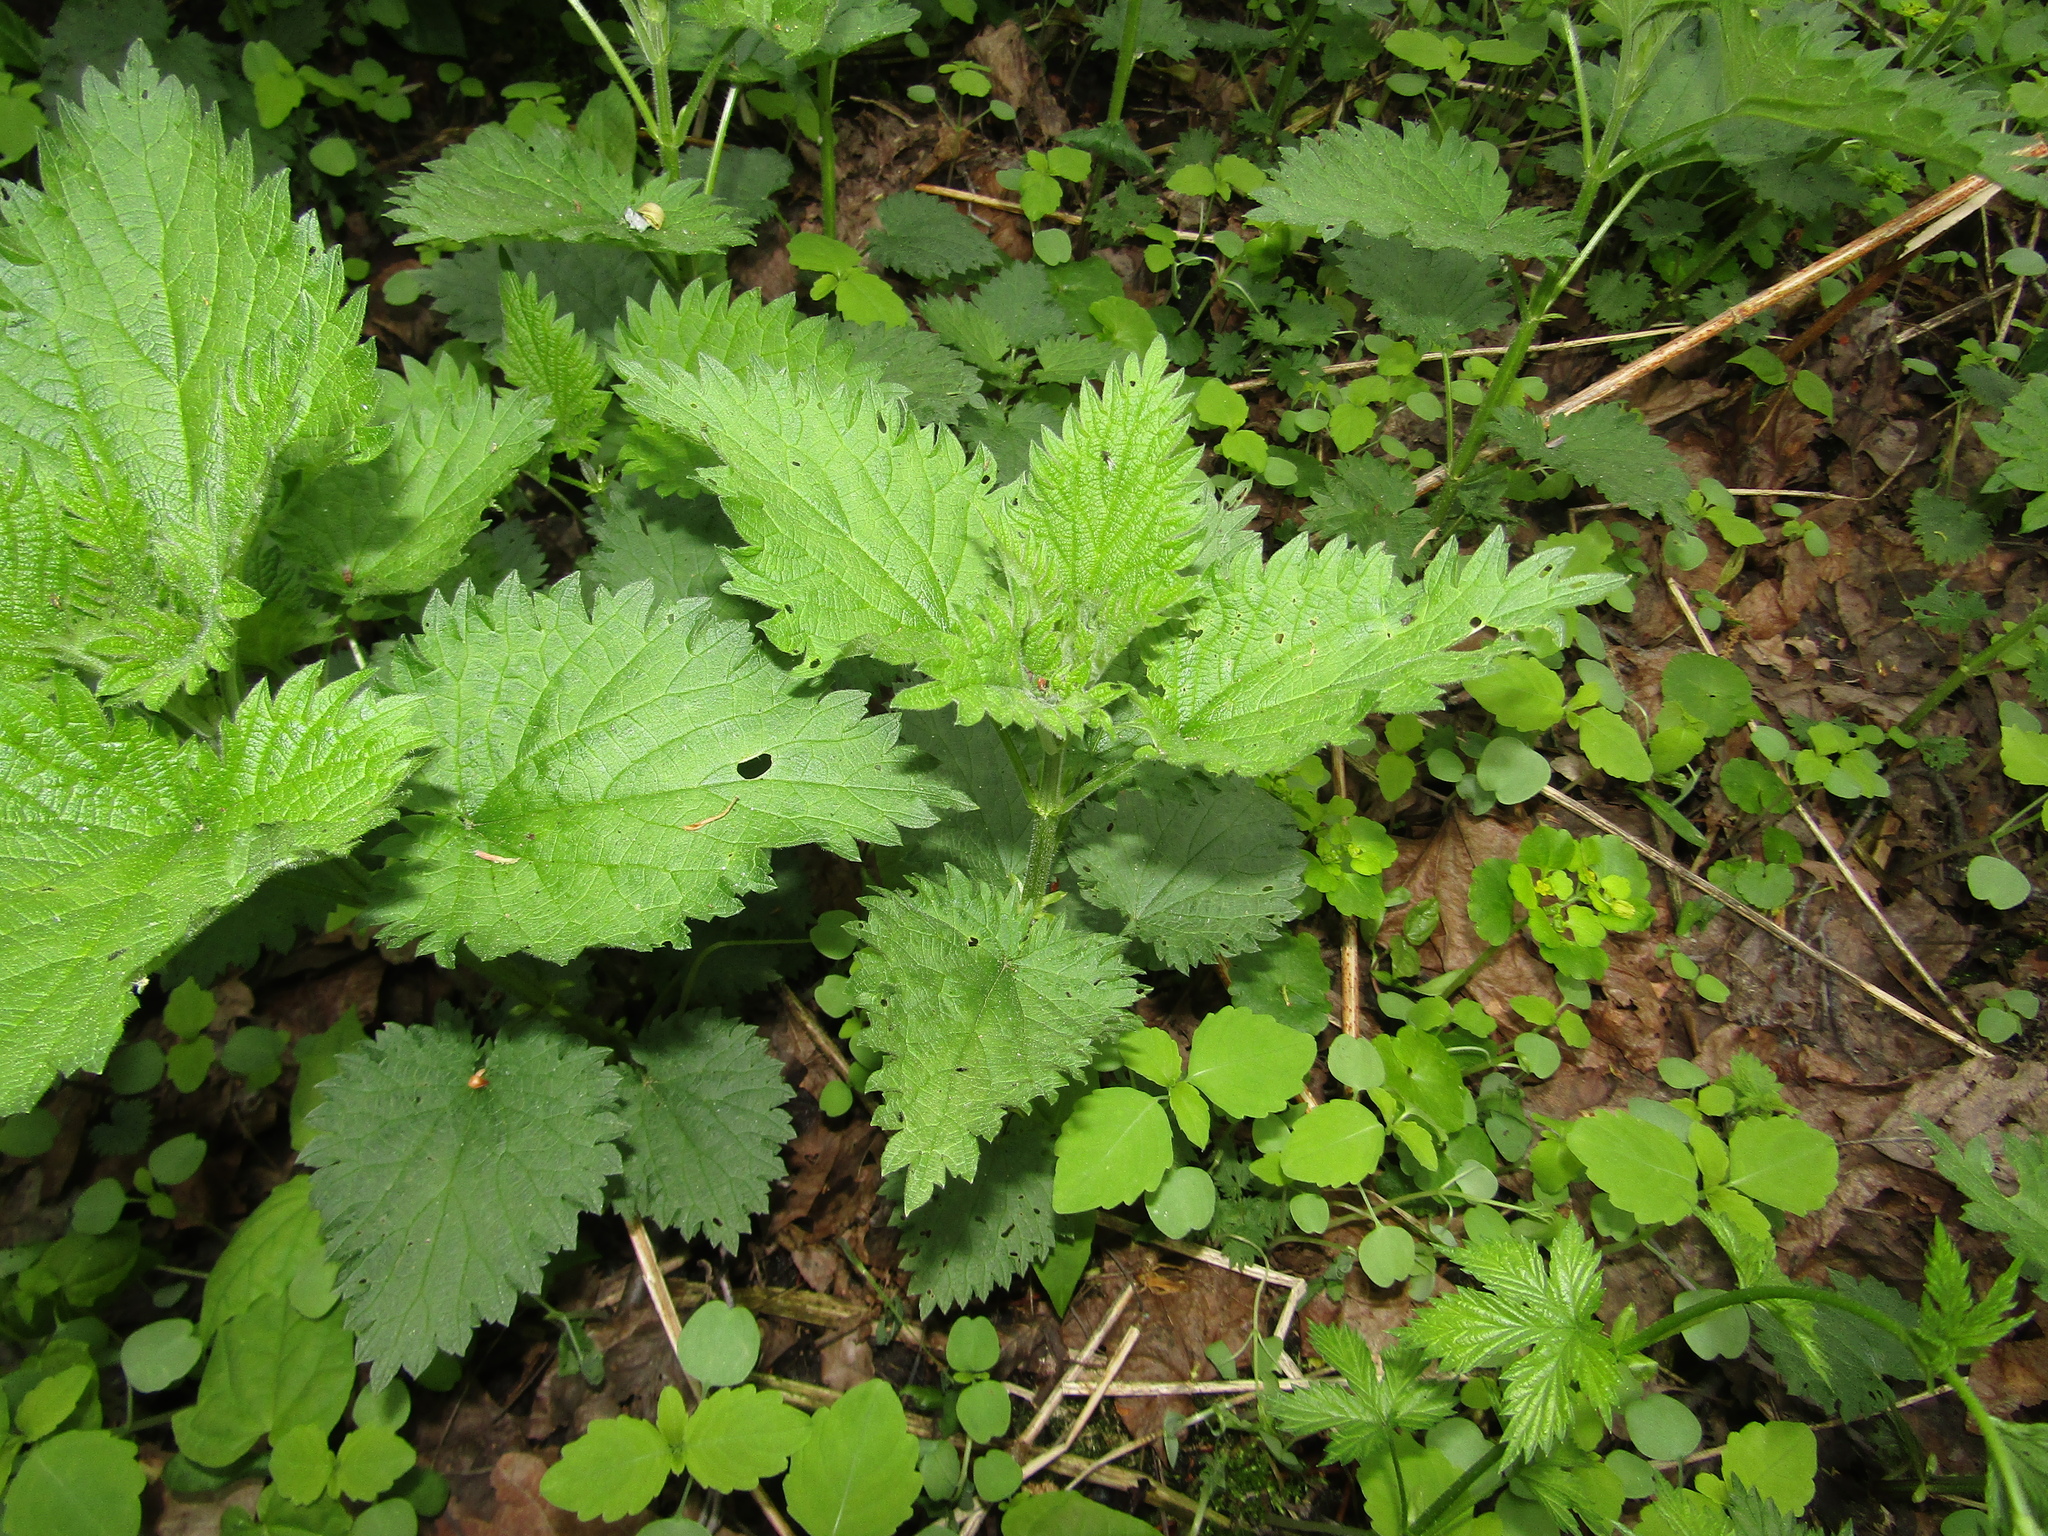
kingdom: Plantae
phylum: Tracheophyta
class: Magnoliopsida
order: Rosales
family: Urticaceae
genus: Urtica
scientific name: Urtica dioica
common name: Common nettle
